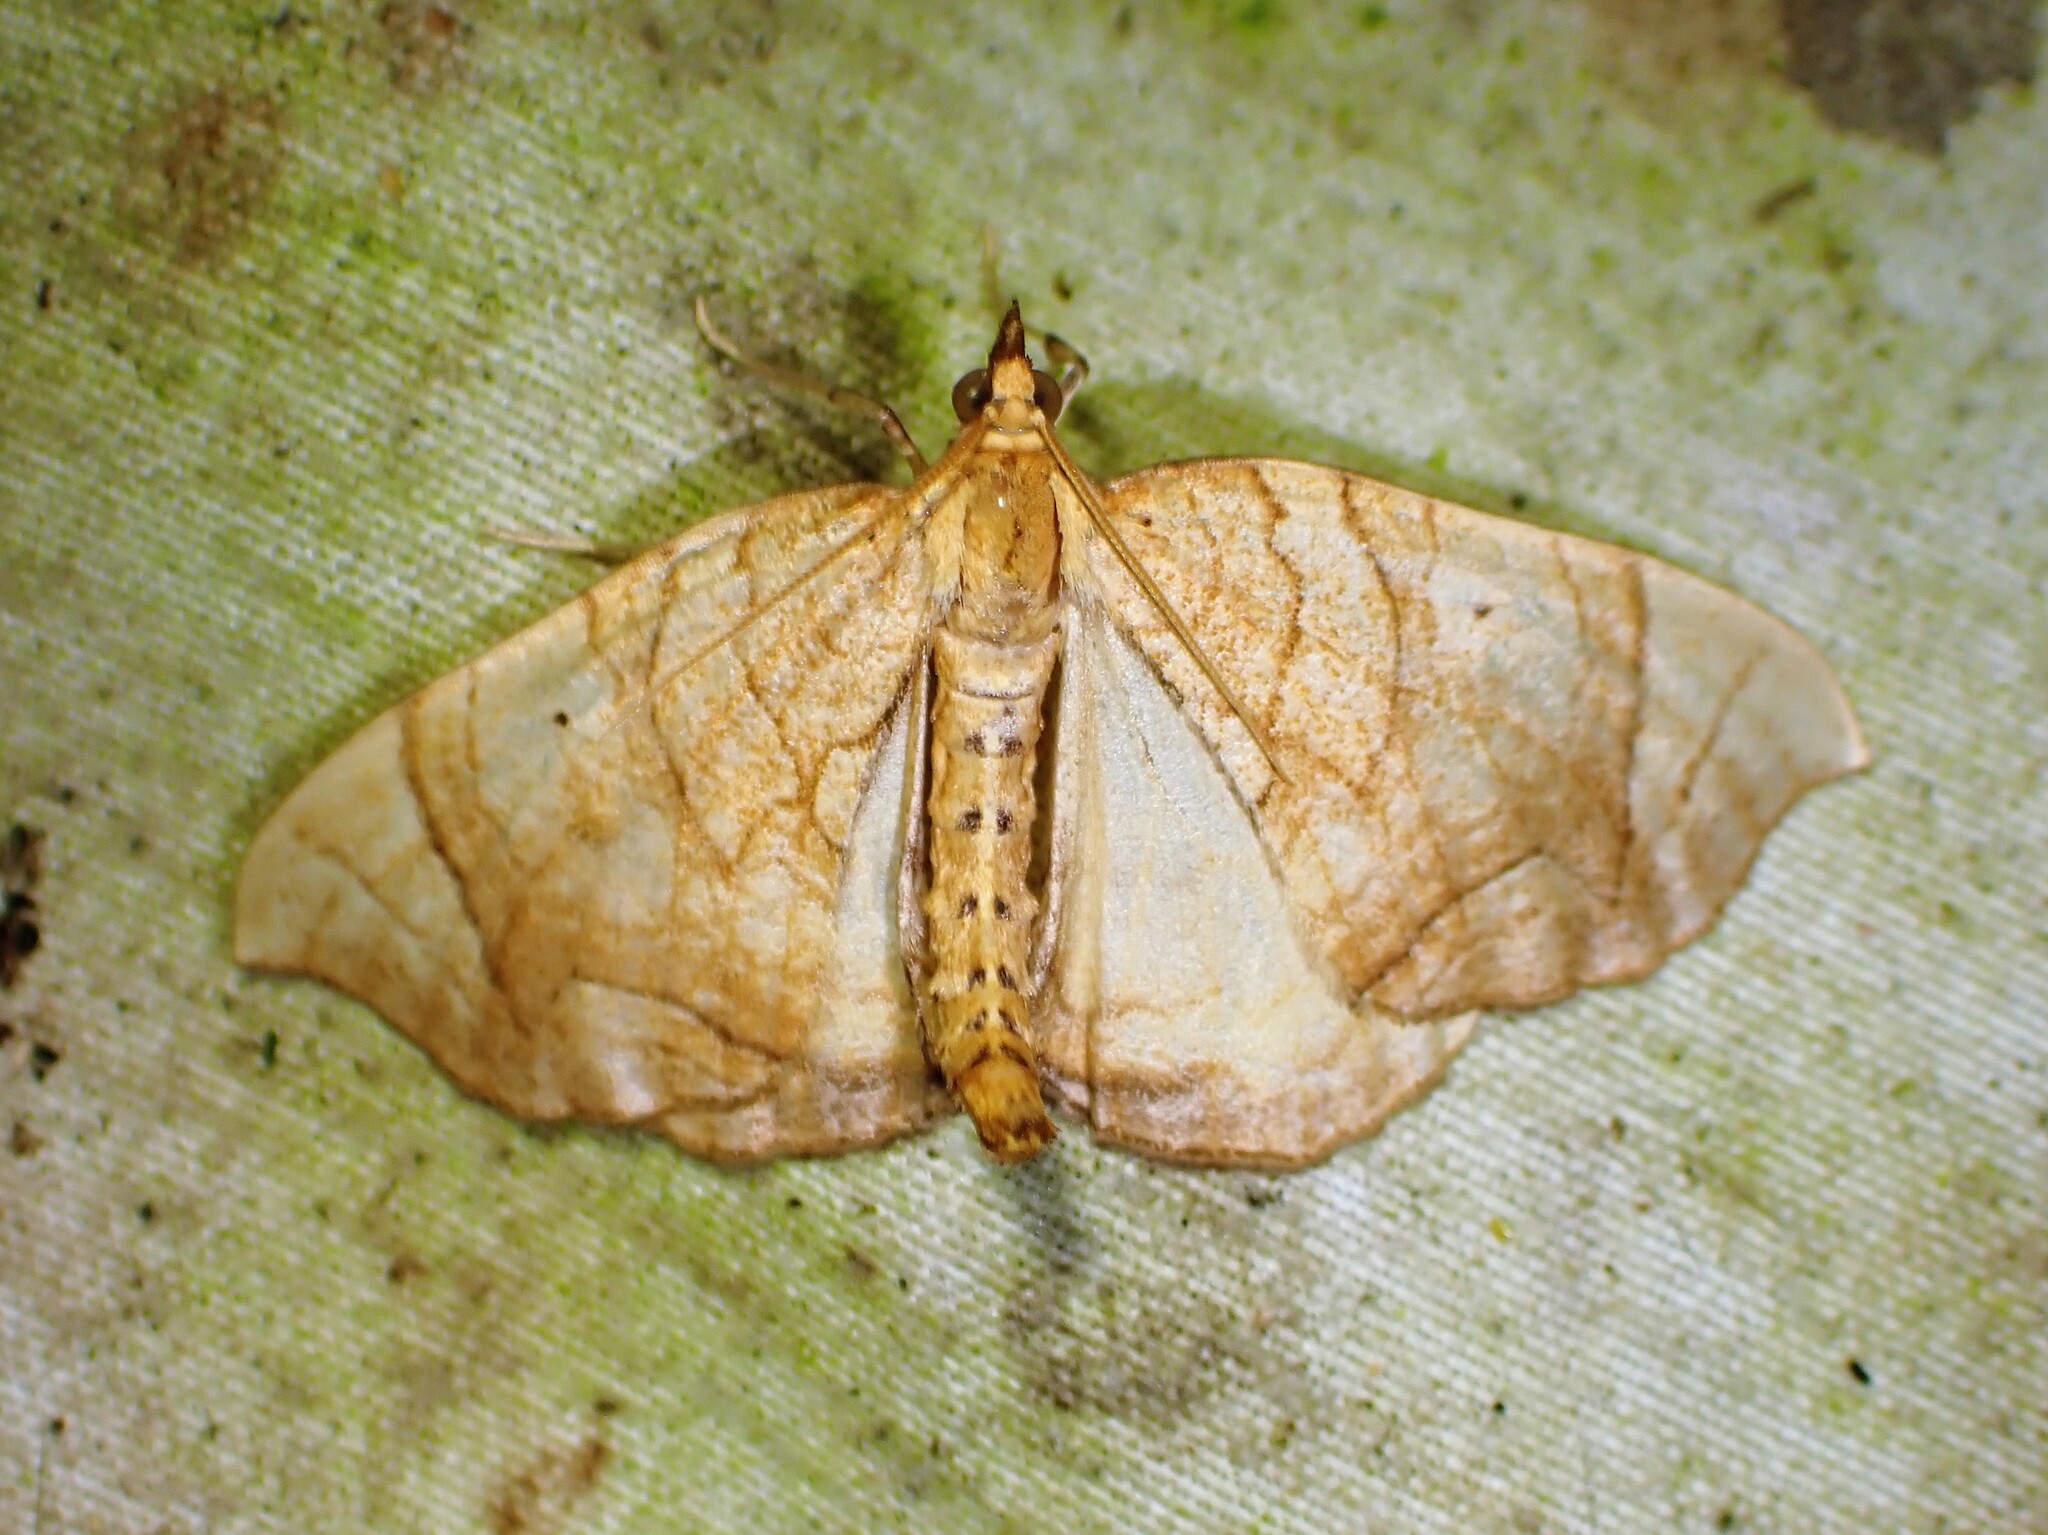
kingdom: Animalia
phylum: Arthropoda
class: Insecta
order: Lepidoptera
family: Geometridae
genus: Eulithis
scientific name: Eulithis
